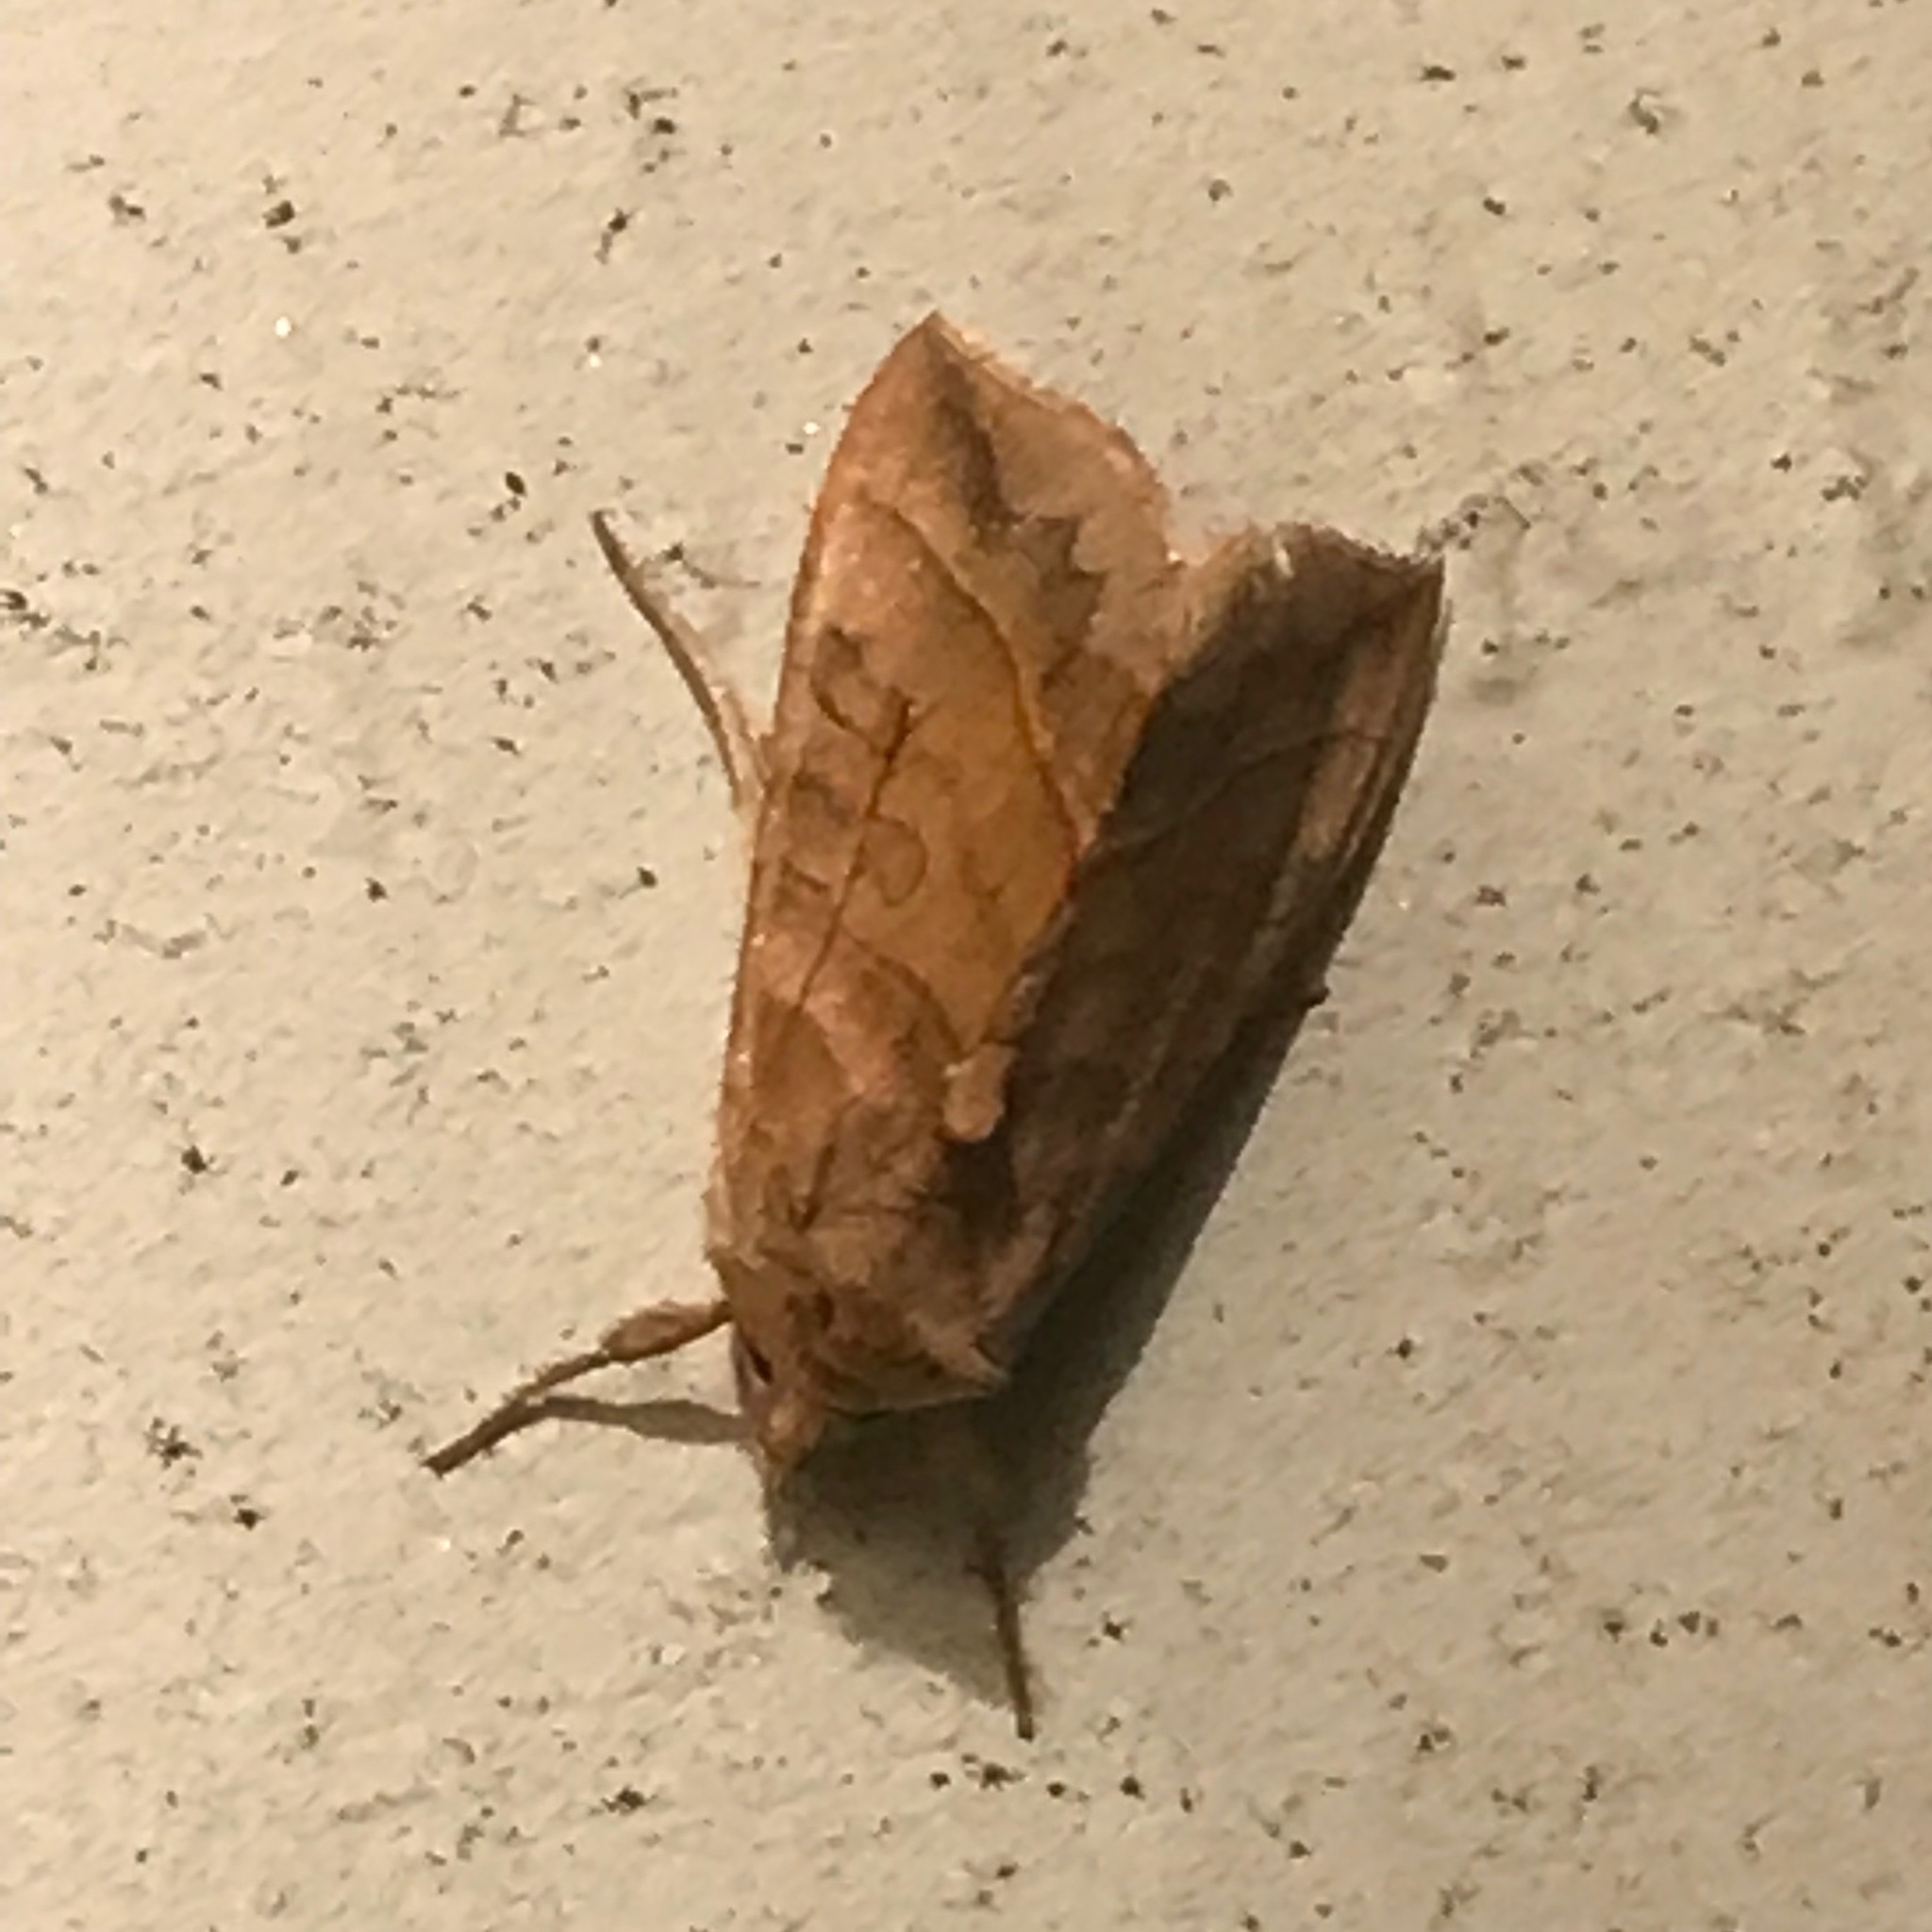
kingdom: Animalia
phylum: Arthropoda
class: Insecta
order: Lepidoptera
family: Noctuidae
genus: Diachrysia
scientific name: Diachrysia aereoides
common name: Dark-spotted looper moth
